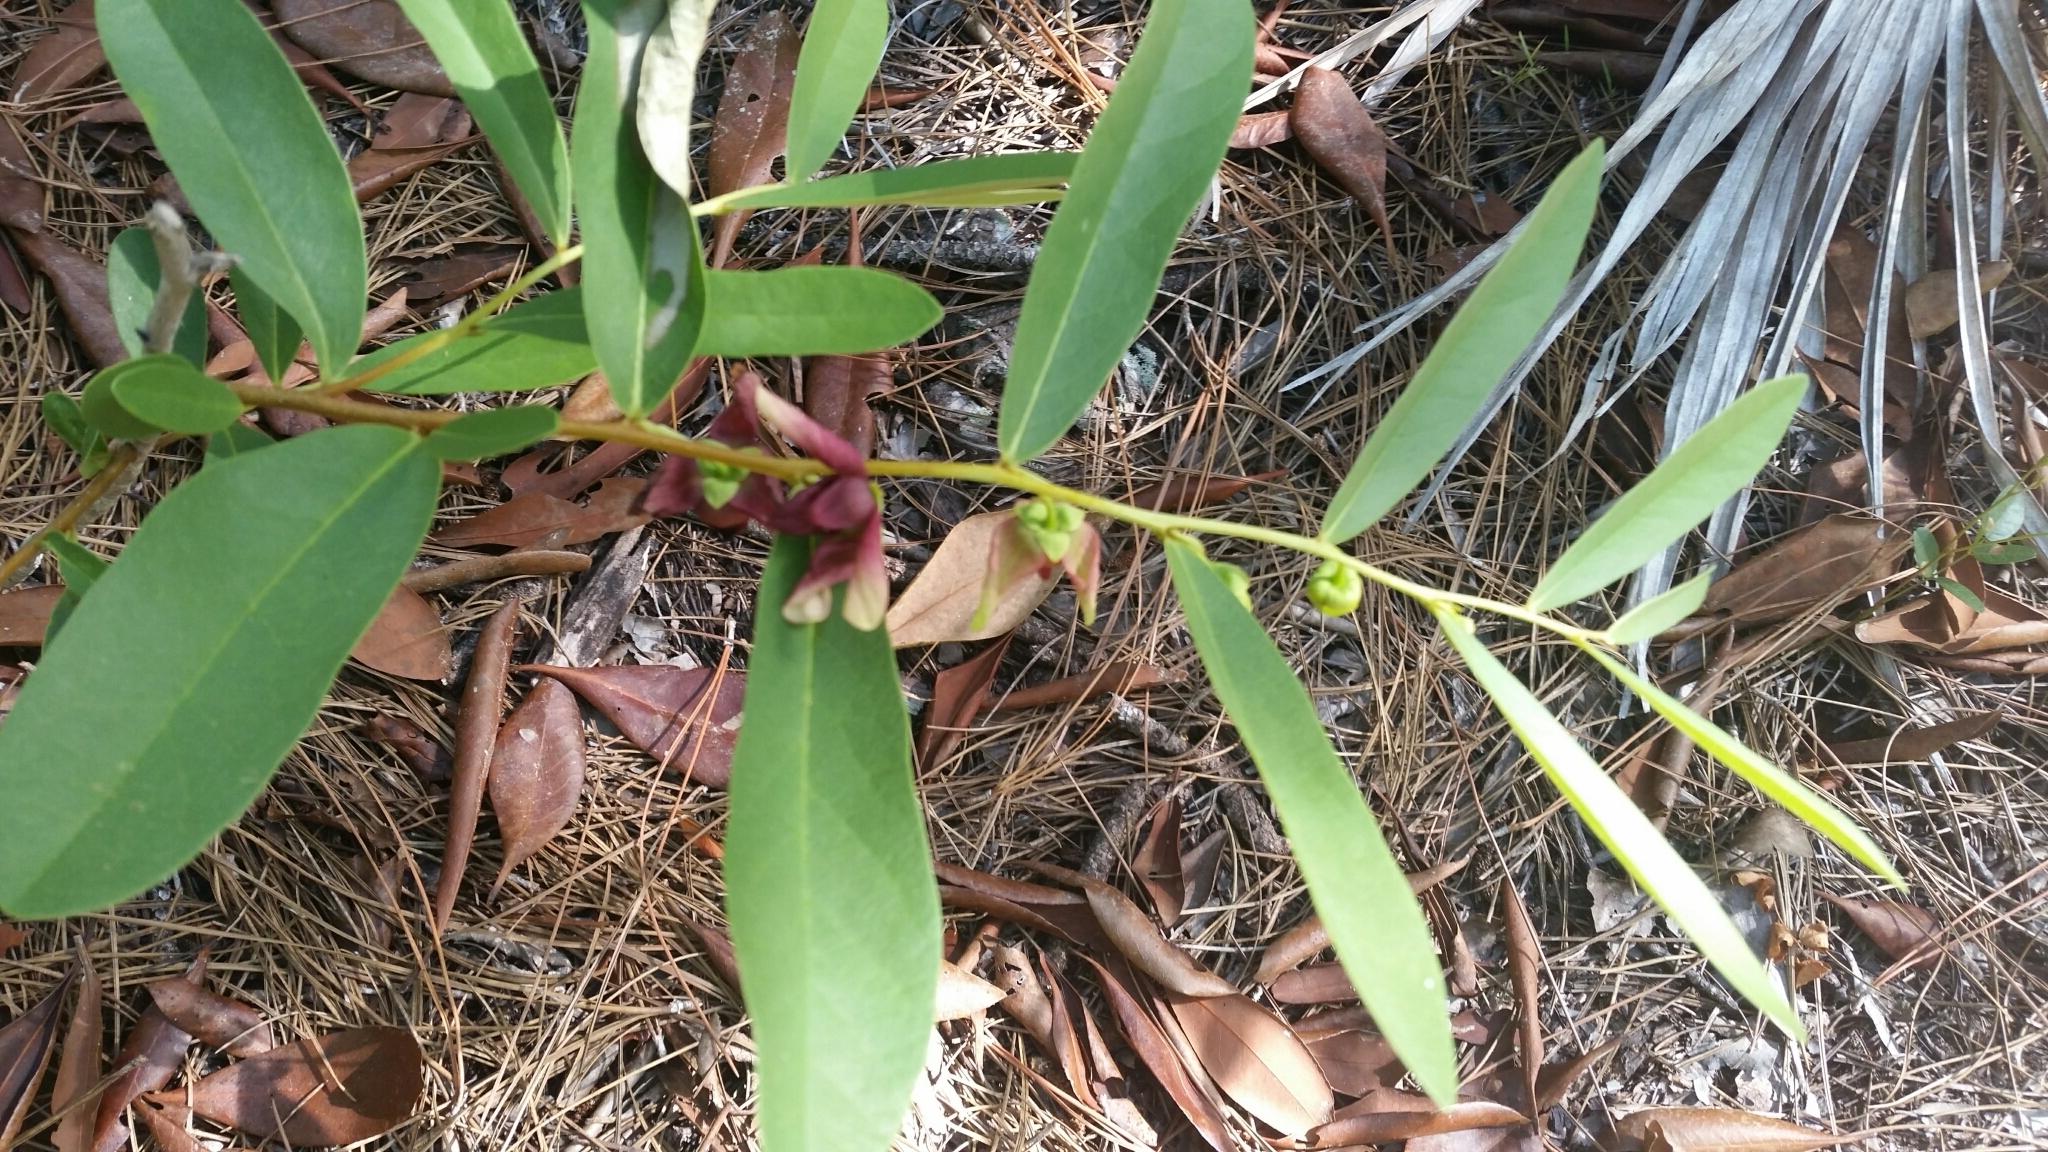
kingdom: Plantae
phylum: Tracheophyta
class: Magnoliopsida
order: Magnoliales
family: Annonaceae
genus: Asimina
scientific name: Asimina pygmaea
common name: Dwarf pawpaw
